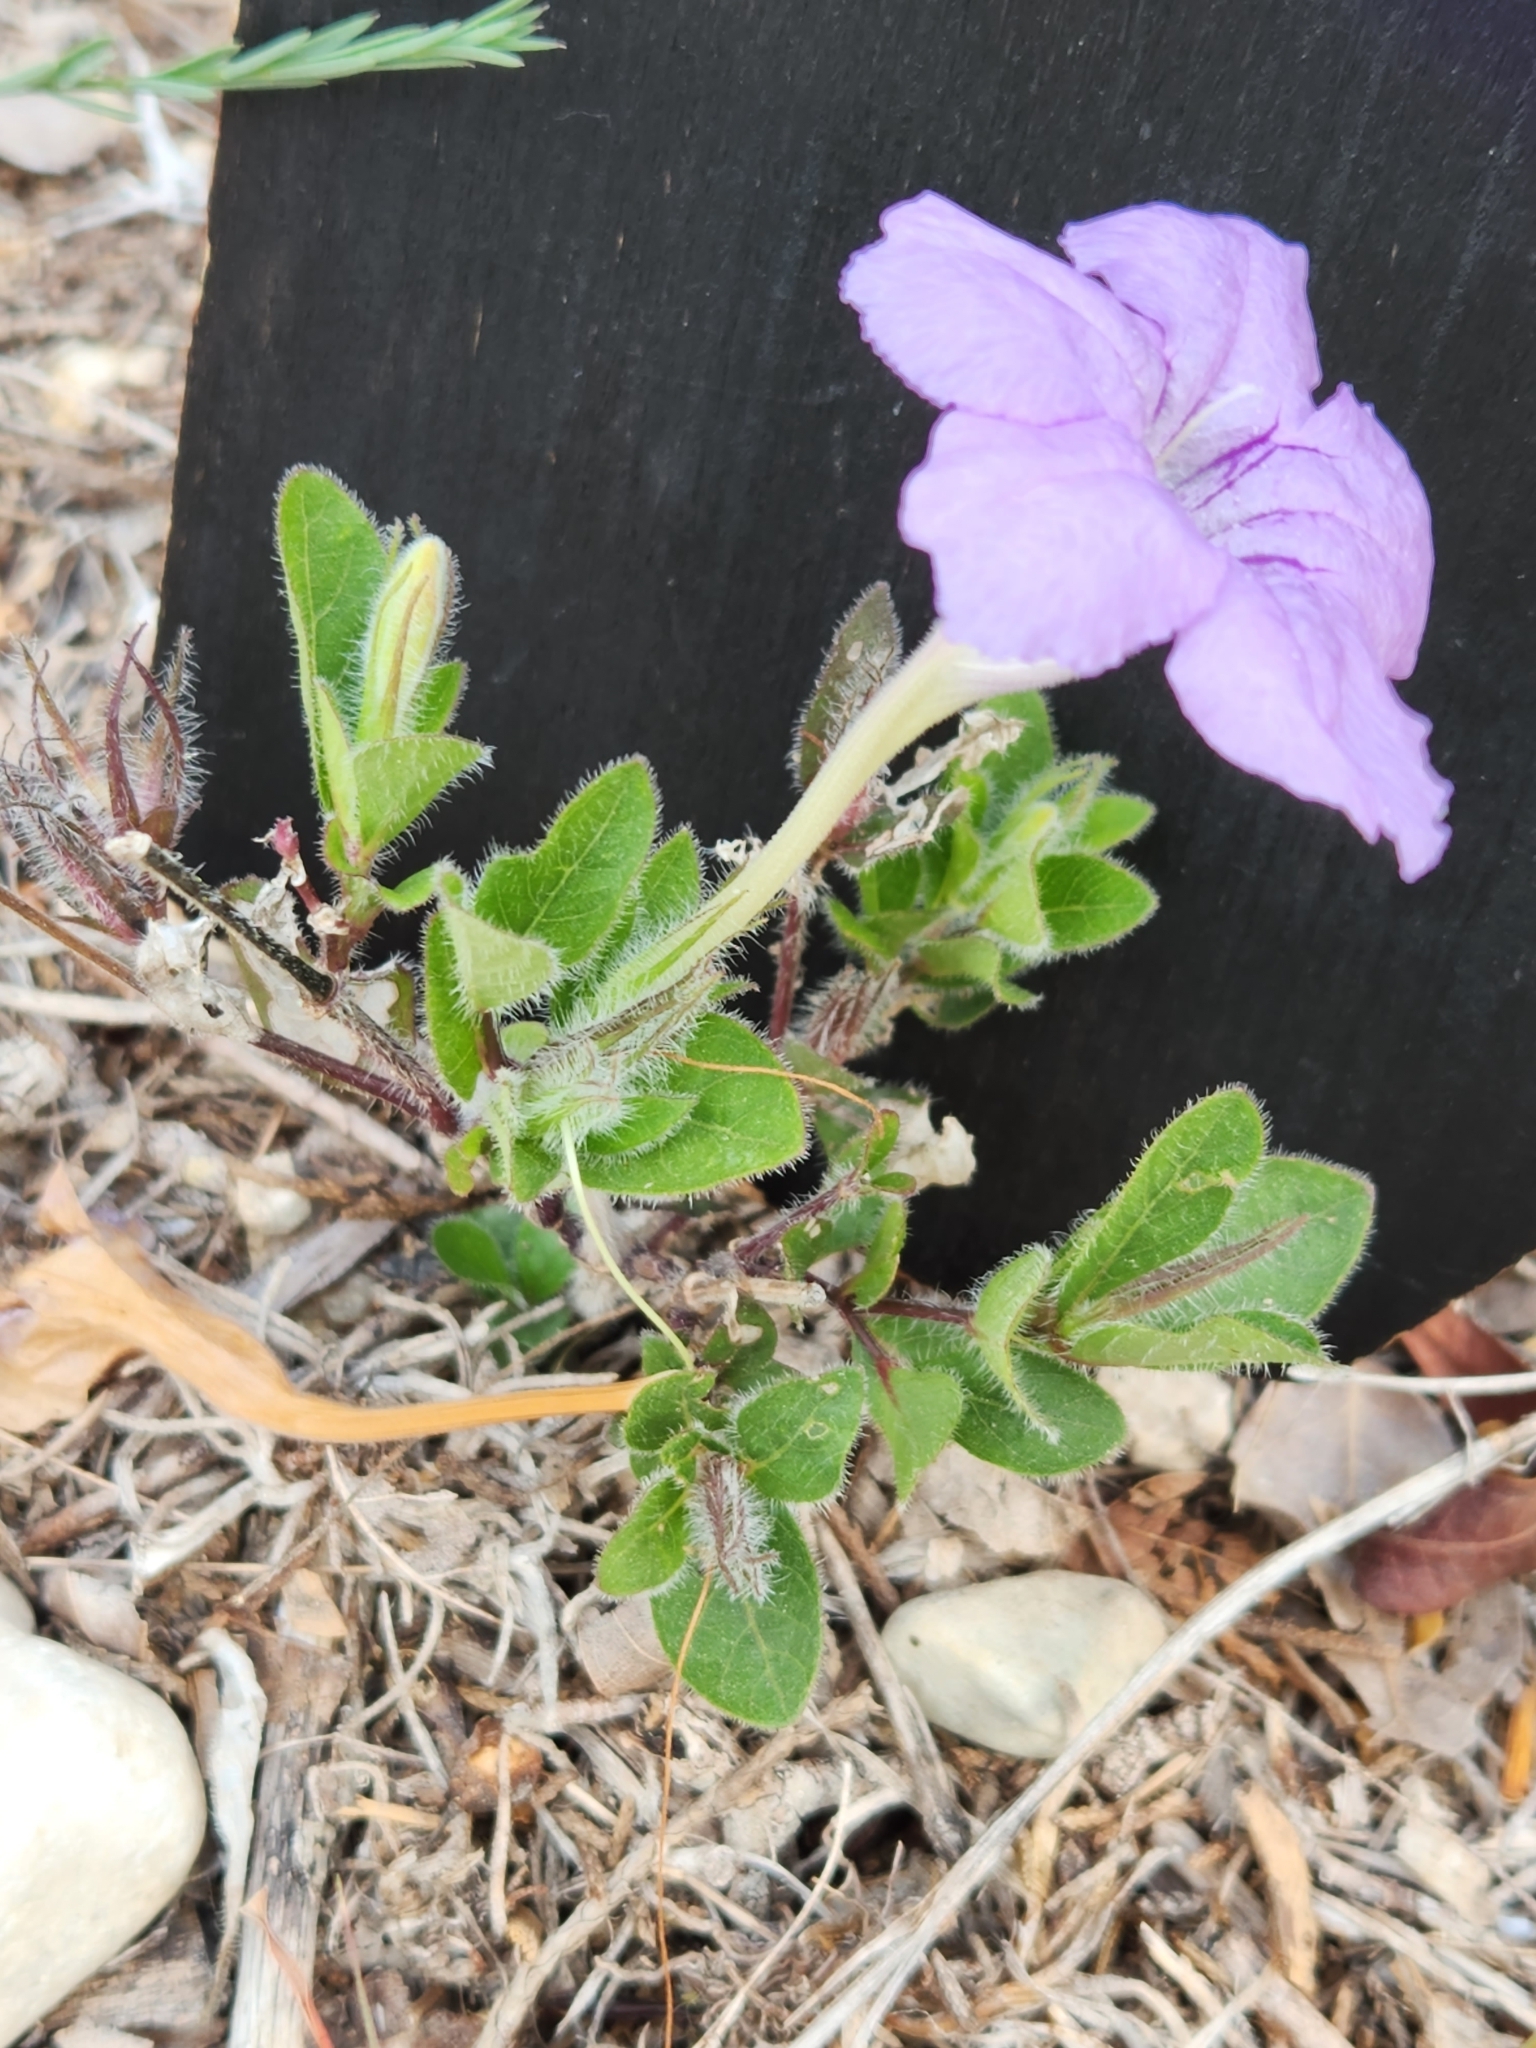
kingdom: Plantae
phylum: Tracheophyta
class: Magnoliopsida
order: Lamiales
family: Acanthaceae
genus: Ruellia
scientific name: Ruellia humilis
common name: Fringe-leaf ruellia
